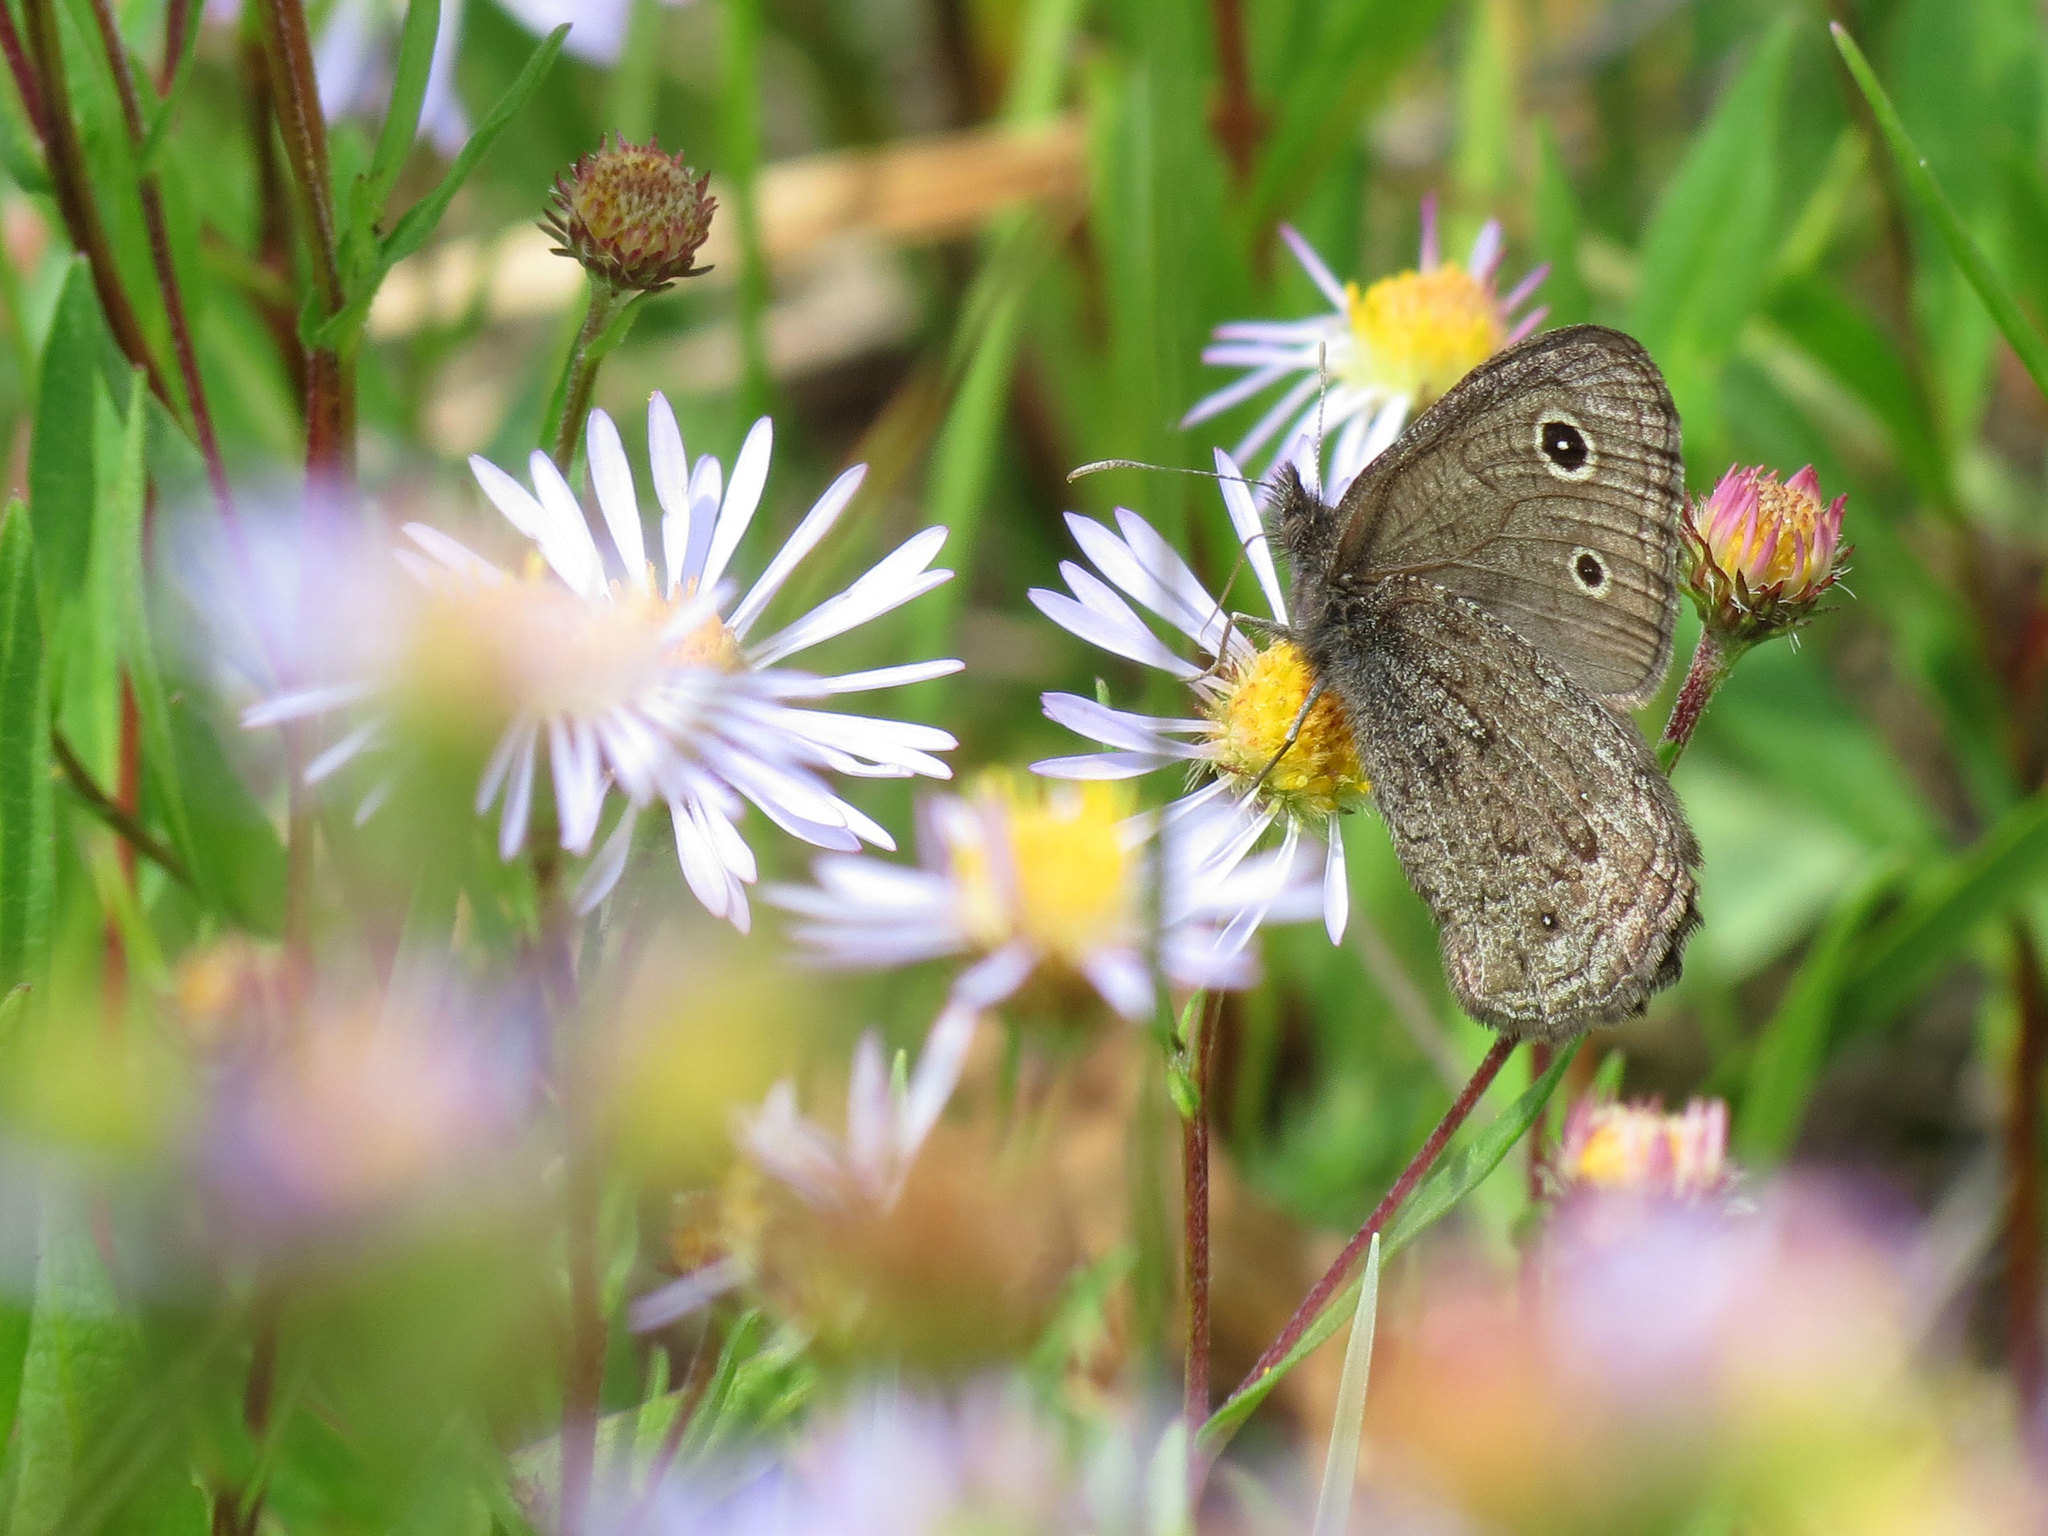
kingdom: Animalia
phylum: Arthropoda
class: Insecta
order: Lepidoptera
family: Nymphalidae
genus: Cercyonis
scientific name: Cercyonis oetus
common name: Small wood-nymph
